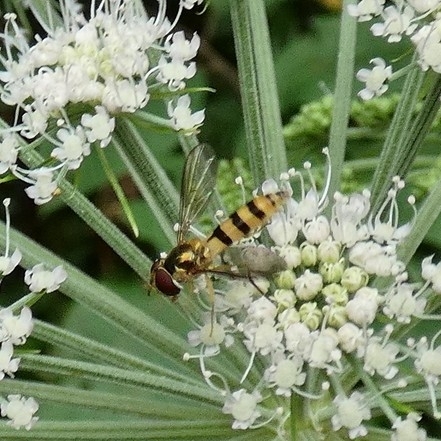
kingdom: Animalia
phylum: Arthropoda
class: Insecta
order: Diptera
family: Syrphidae
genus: Meliscaeva
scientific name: Meliscaeva cinctella
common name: American thintail fly
